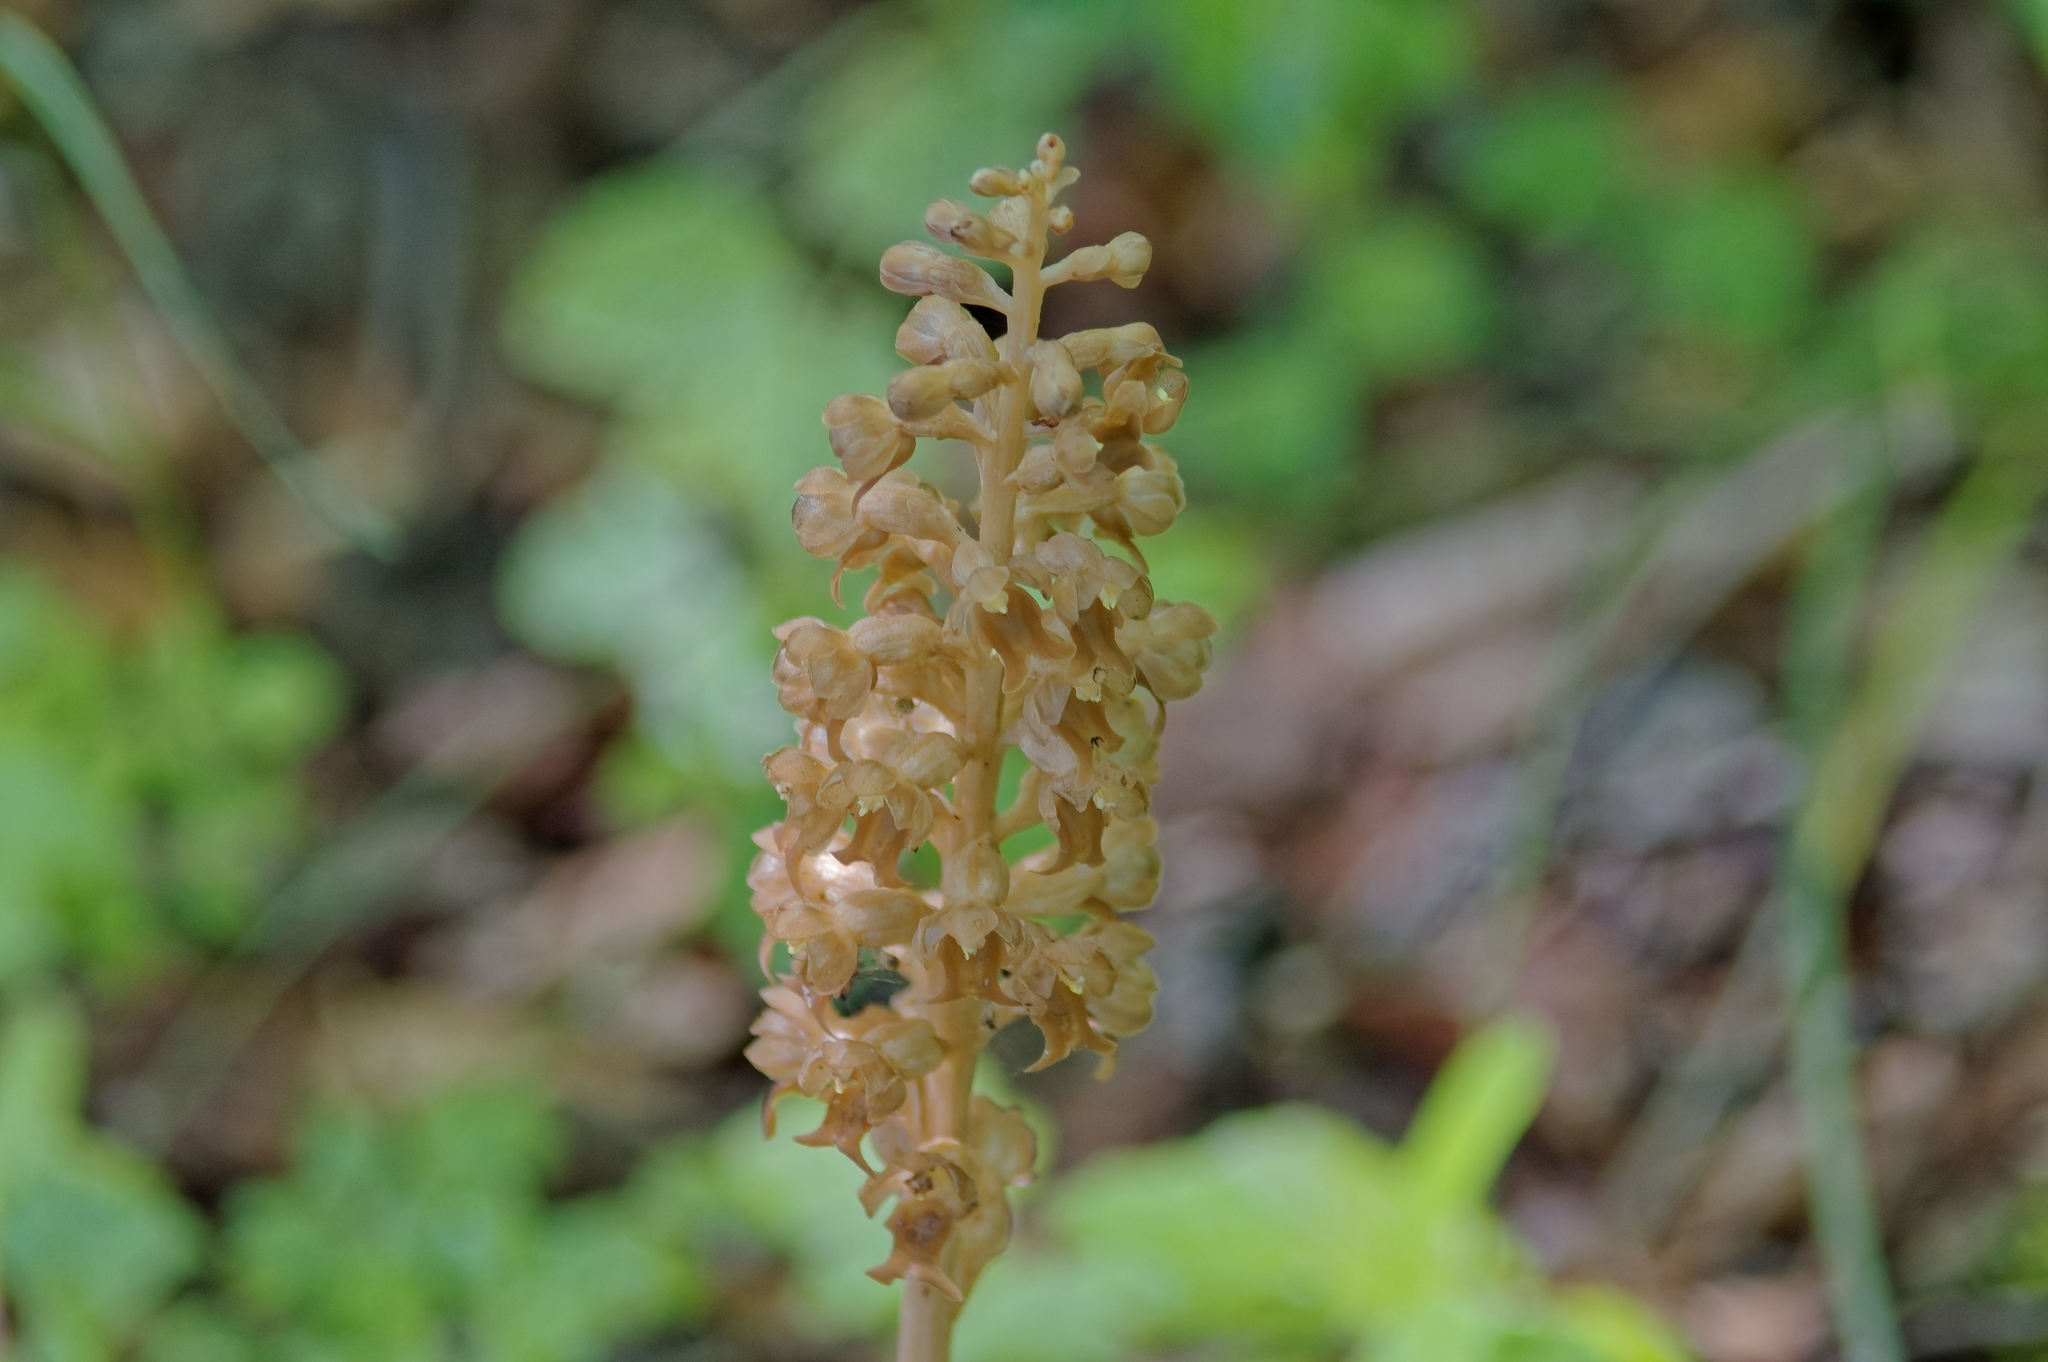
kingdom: Plantae
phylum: Tracheophyta
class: Liliopsida
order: Asparagales
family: Orchidaceae
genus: Neottia
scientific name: Neottia nidus-avis
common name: Bird's-nest orchid
